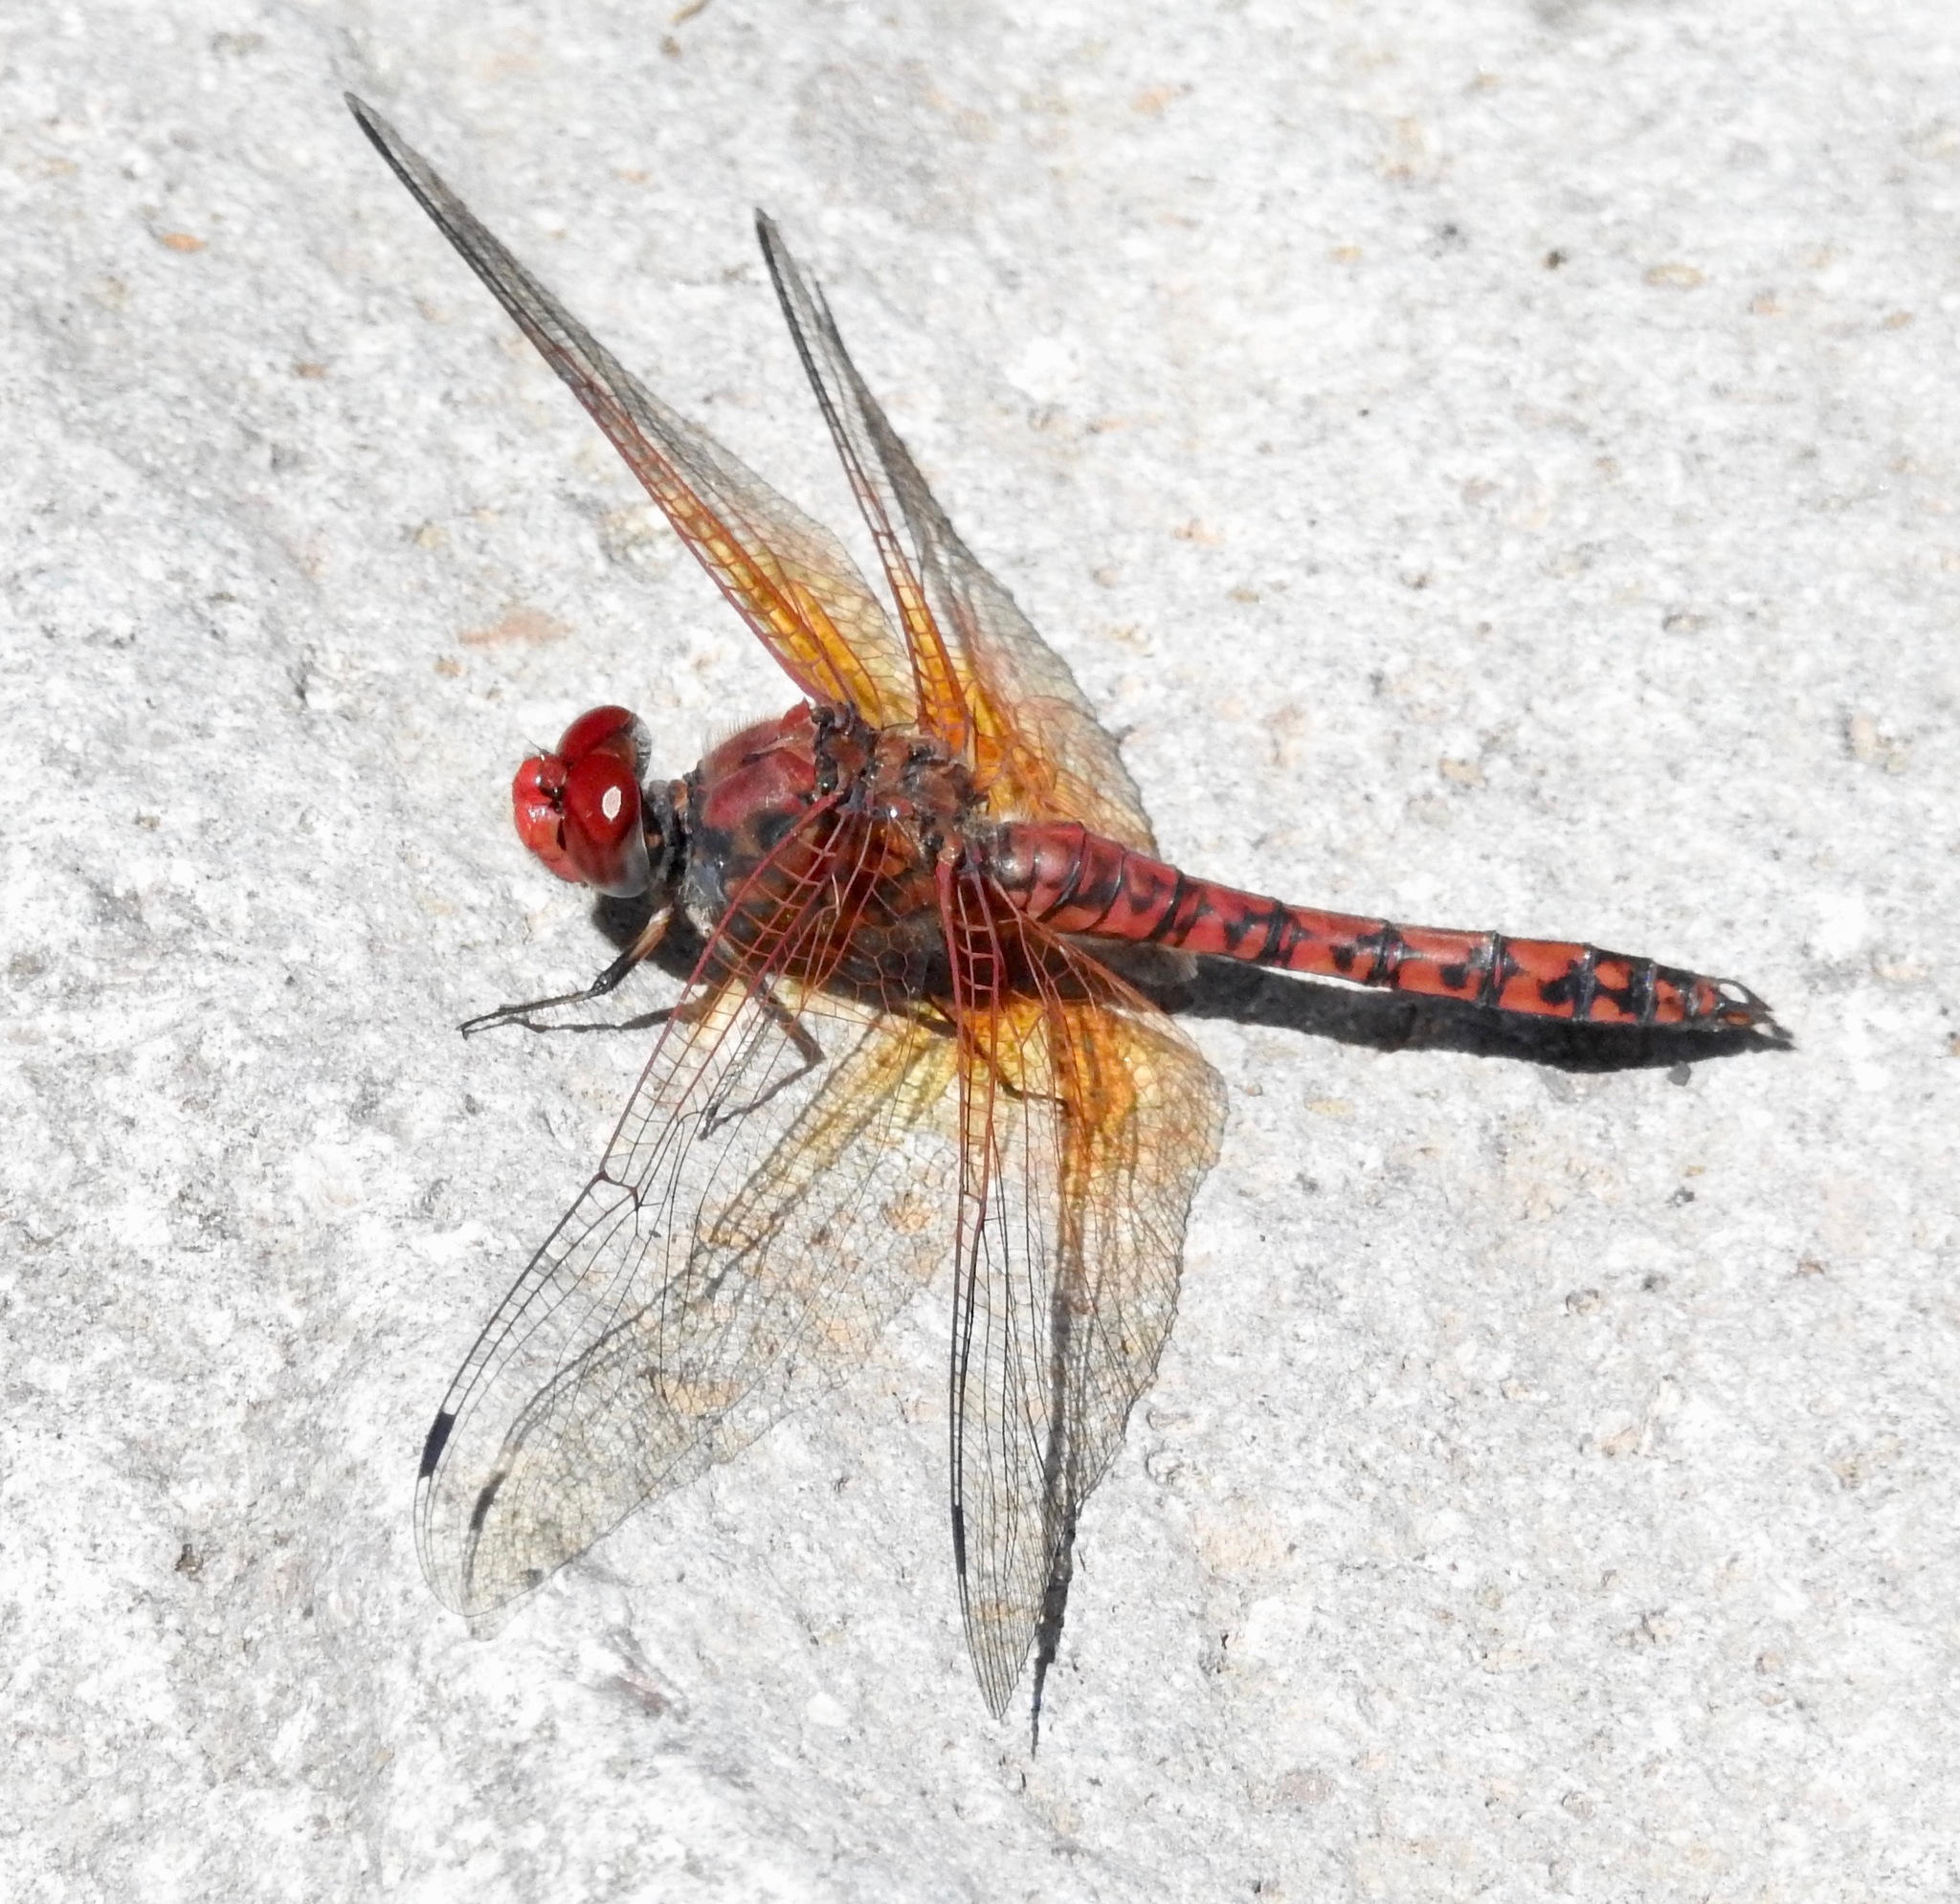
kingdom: Animalia
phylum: Arthropoda
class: Insecta
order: Odonata
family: Libellulidae
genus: Paltothemis
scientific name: Paltothemis lineatipes
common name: Red rock skimmer
